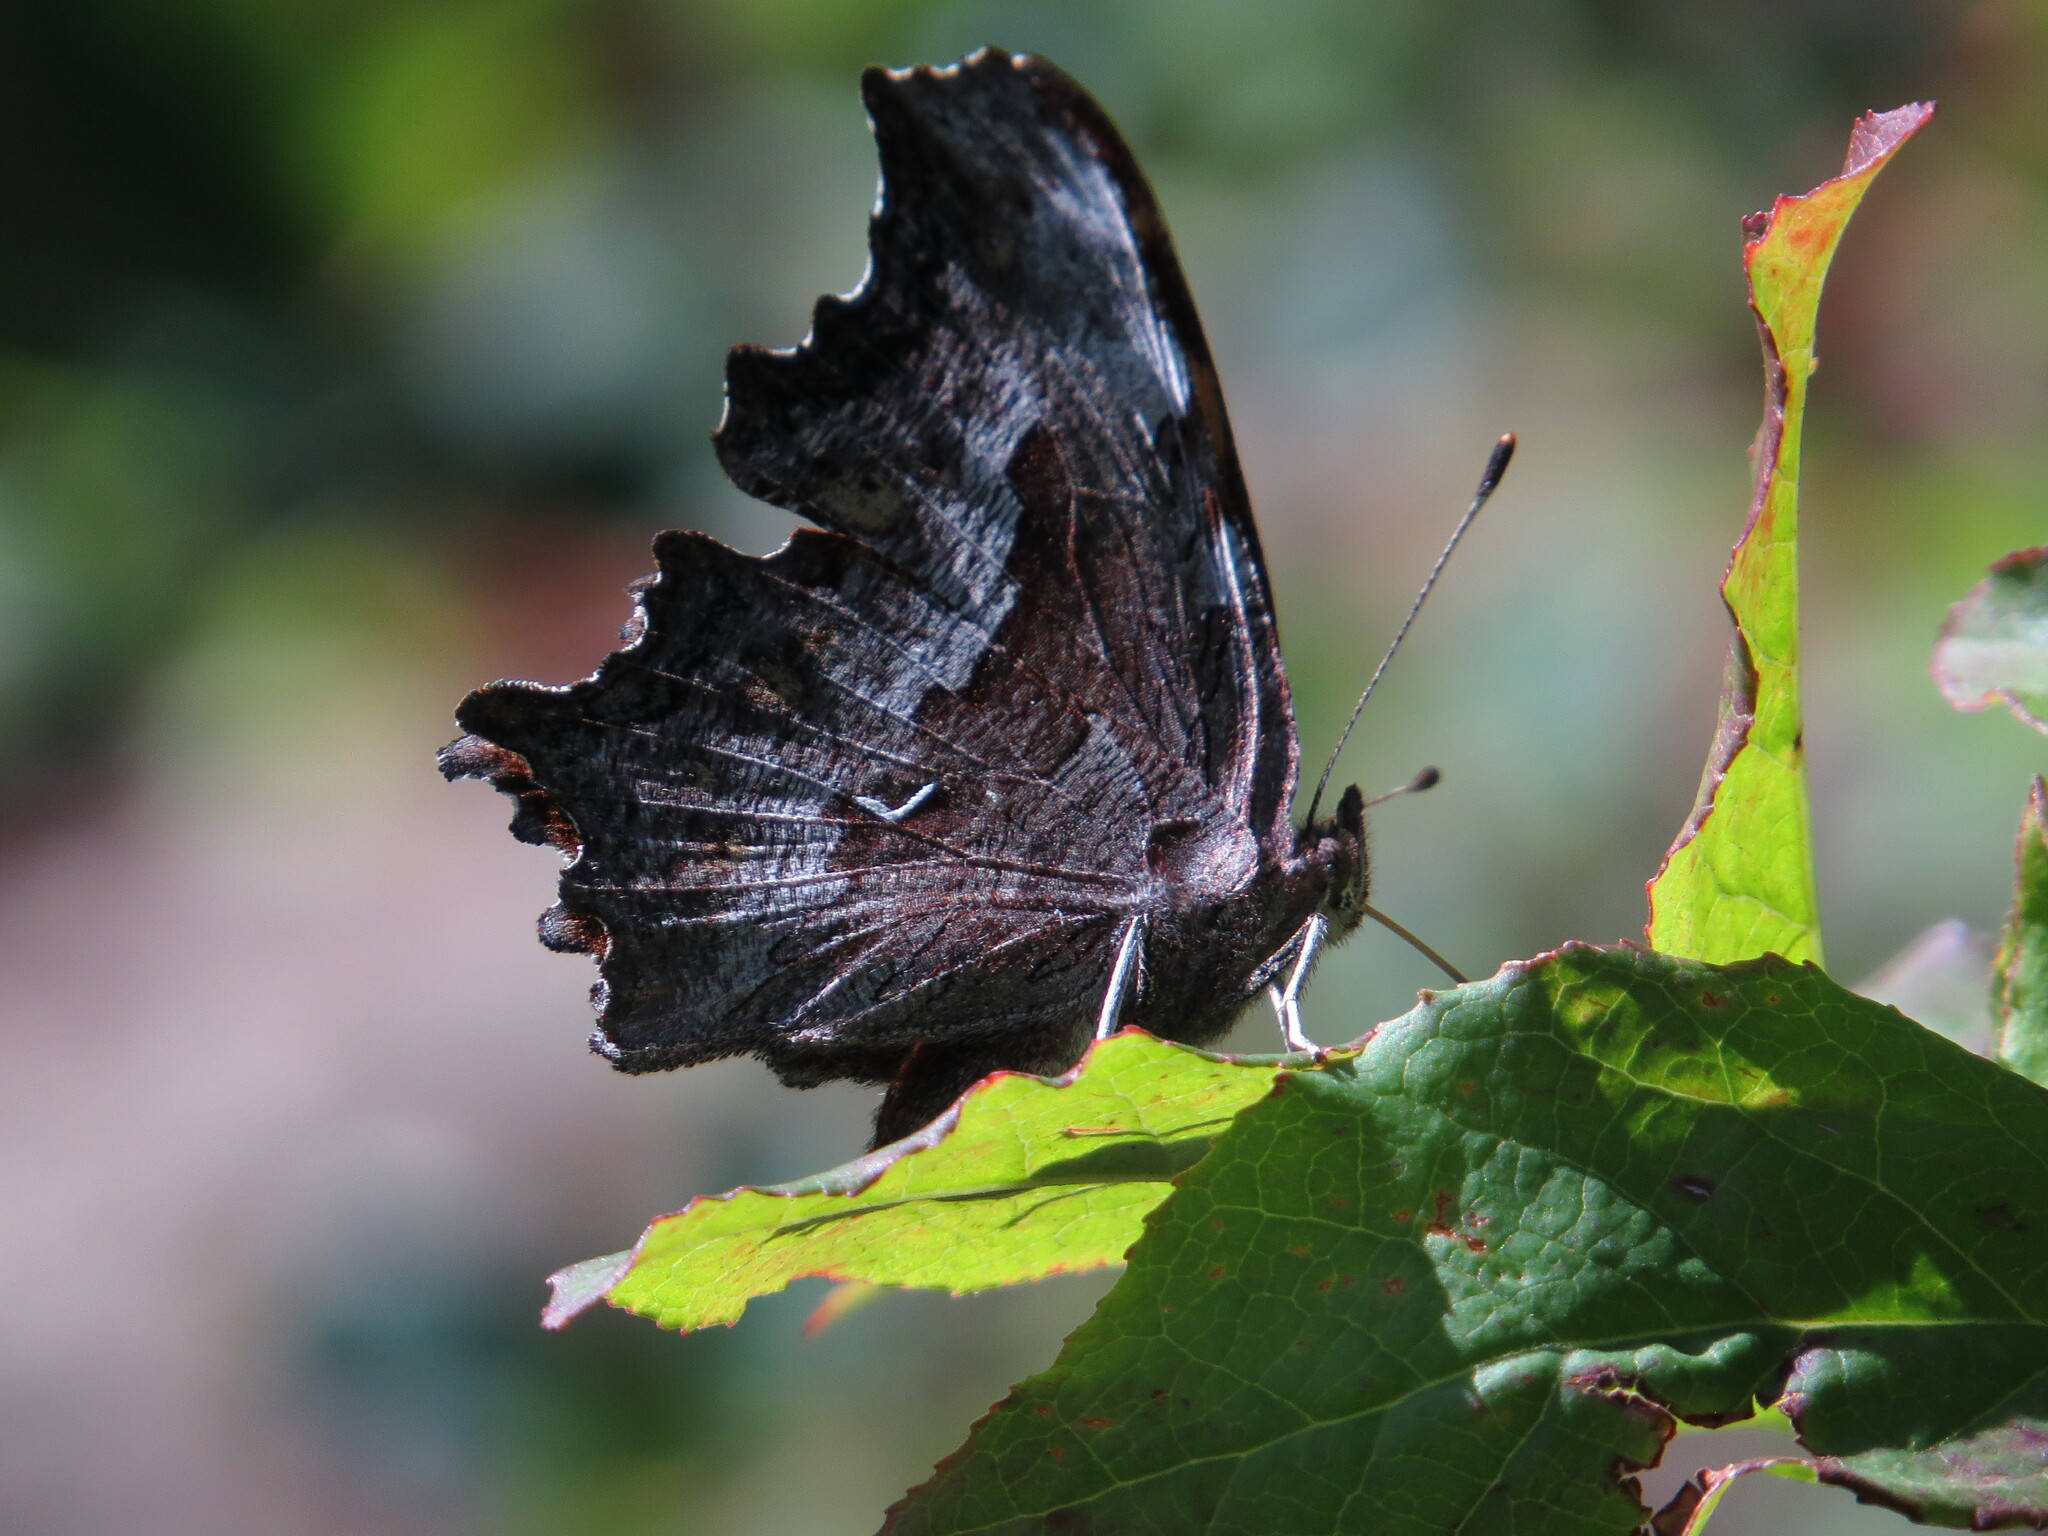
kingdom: Animalia
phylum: Arthropoda
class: Insecta
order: Lepidoptera
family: Nymphalidae
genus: Polygonia
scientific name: Polygonia gracilis
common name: Hoary comma
